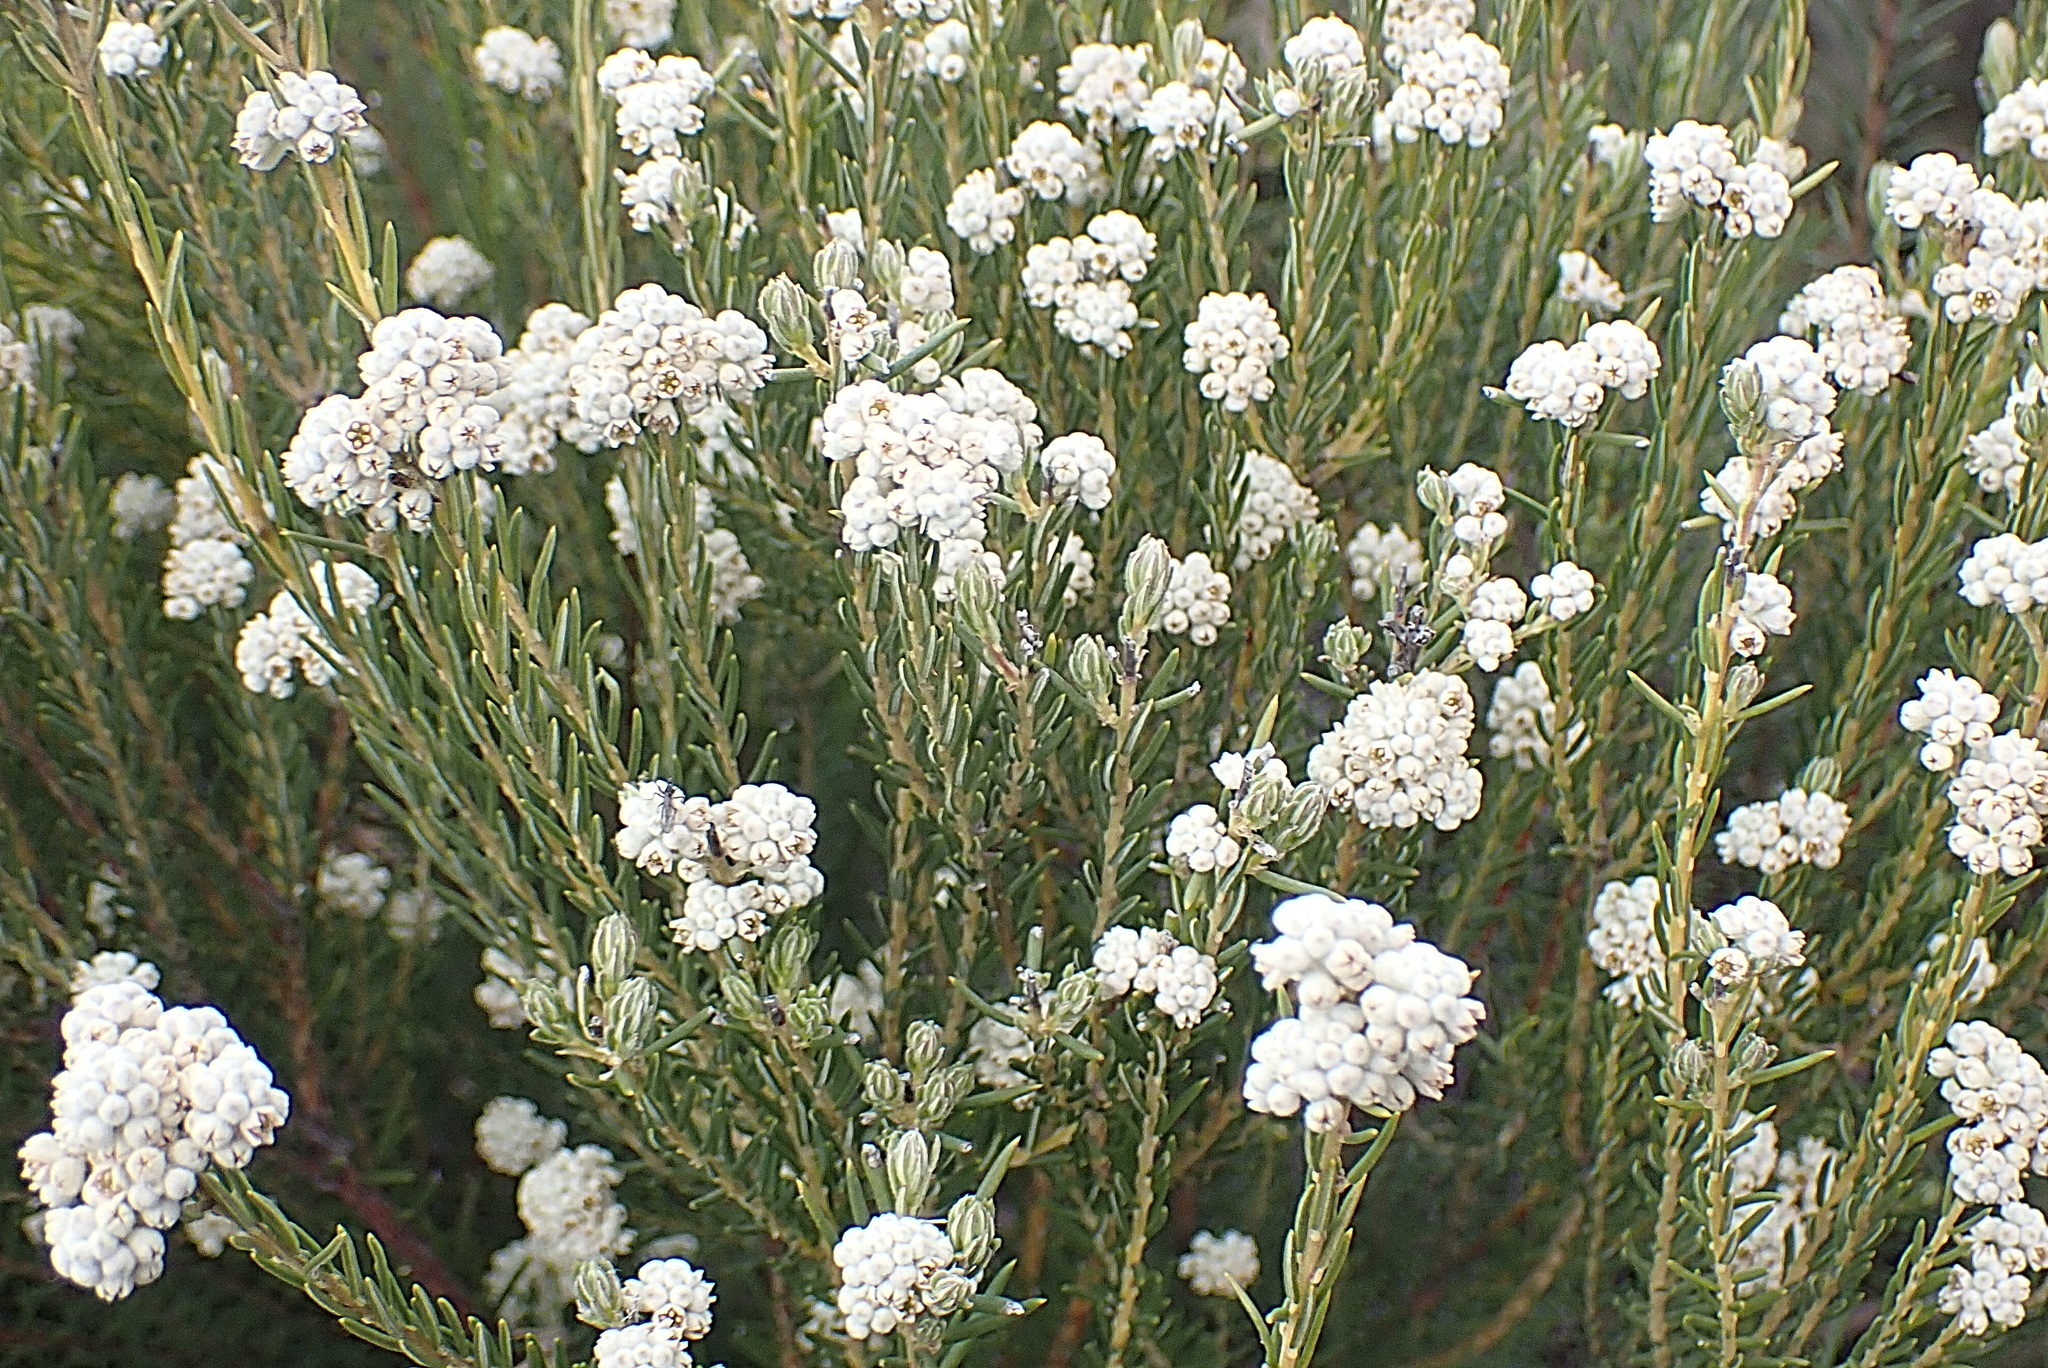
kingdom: Plantae
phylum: Tracheophyta
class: Magnoliopsida
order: Rosales
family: Rhamnaceae
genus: Phylica
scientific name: Phylica rigidifolia
